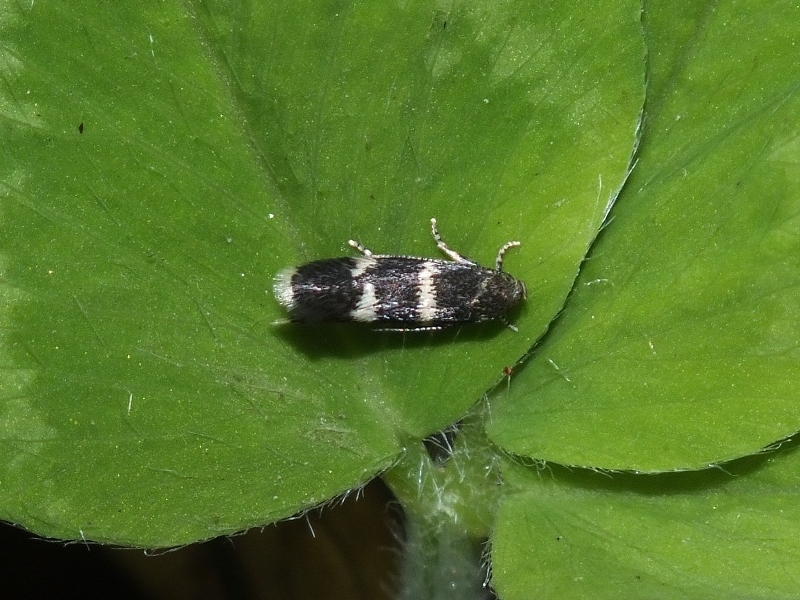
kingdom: Animalia
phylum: Arthropoda
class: Insecta
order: Lepidoptera
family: Elachistidae
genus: Elachista
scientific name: Elachista pullicomella
